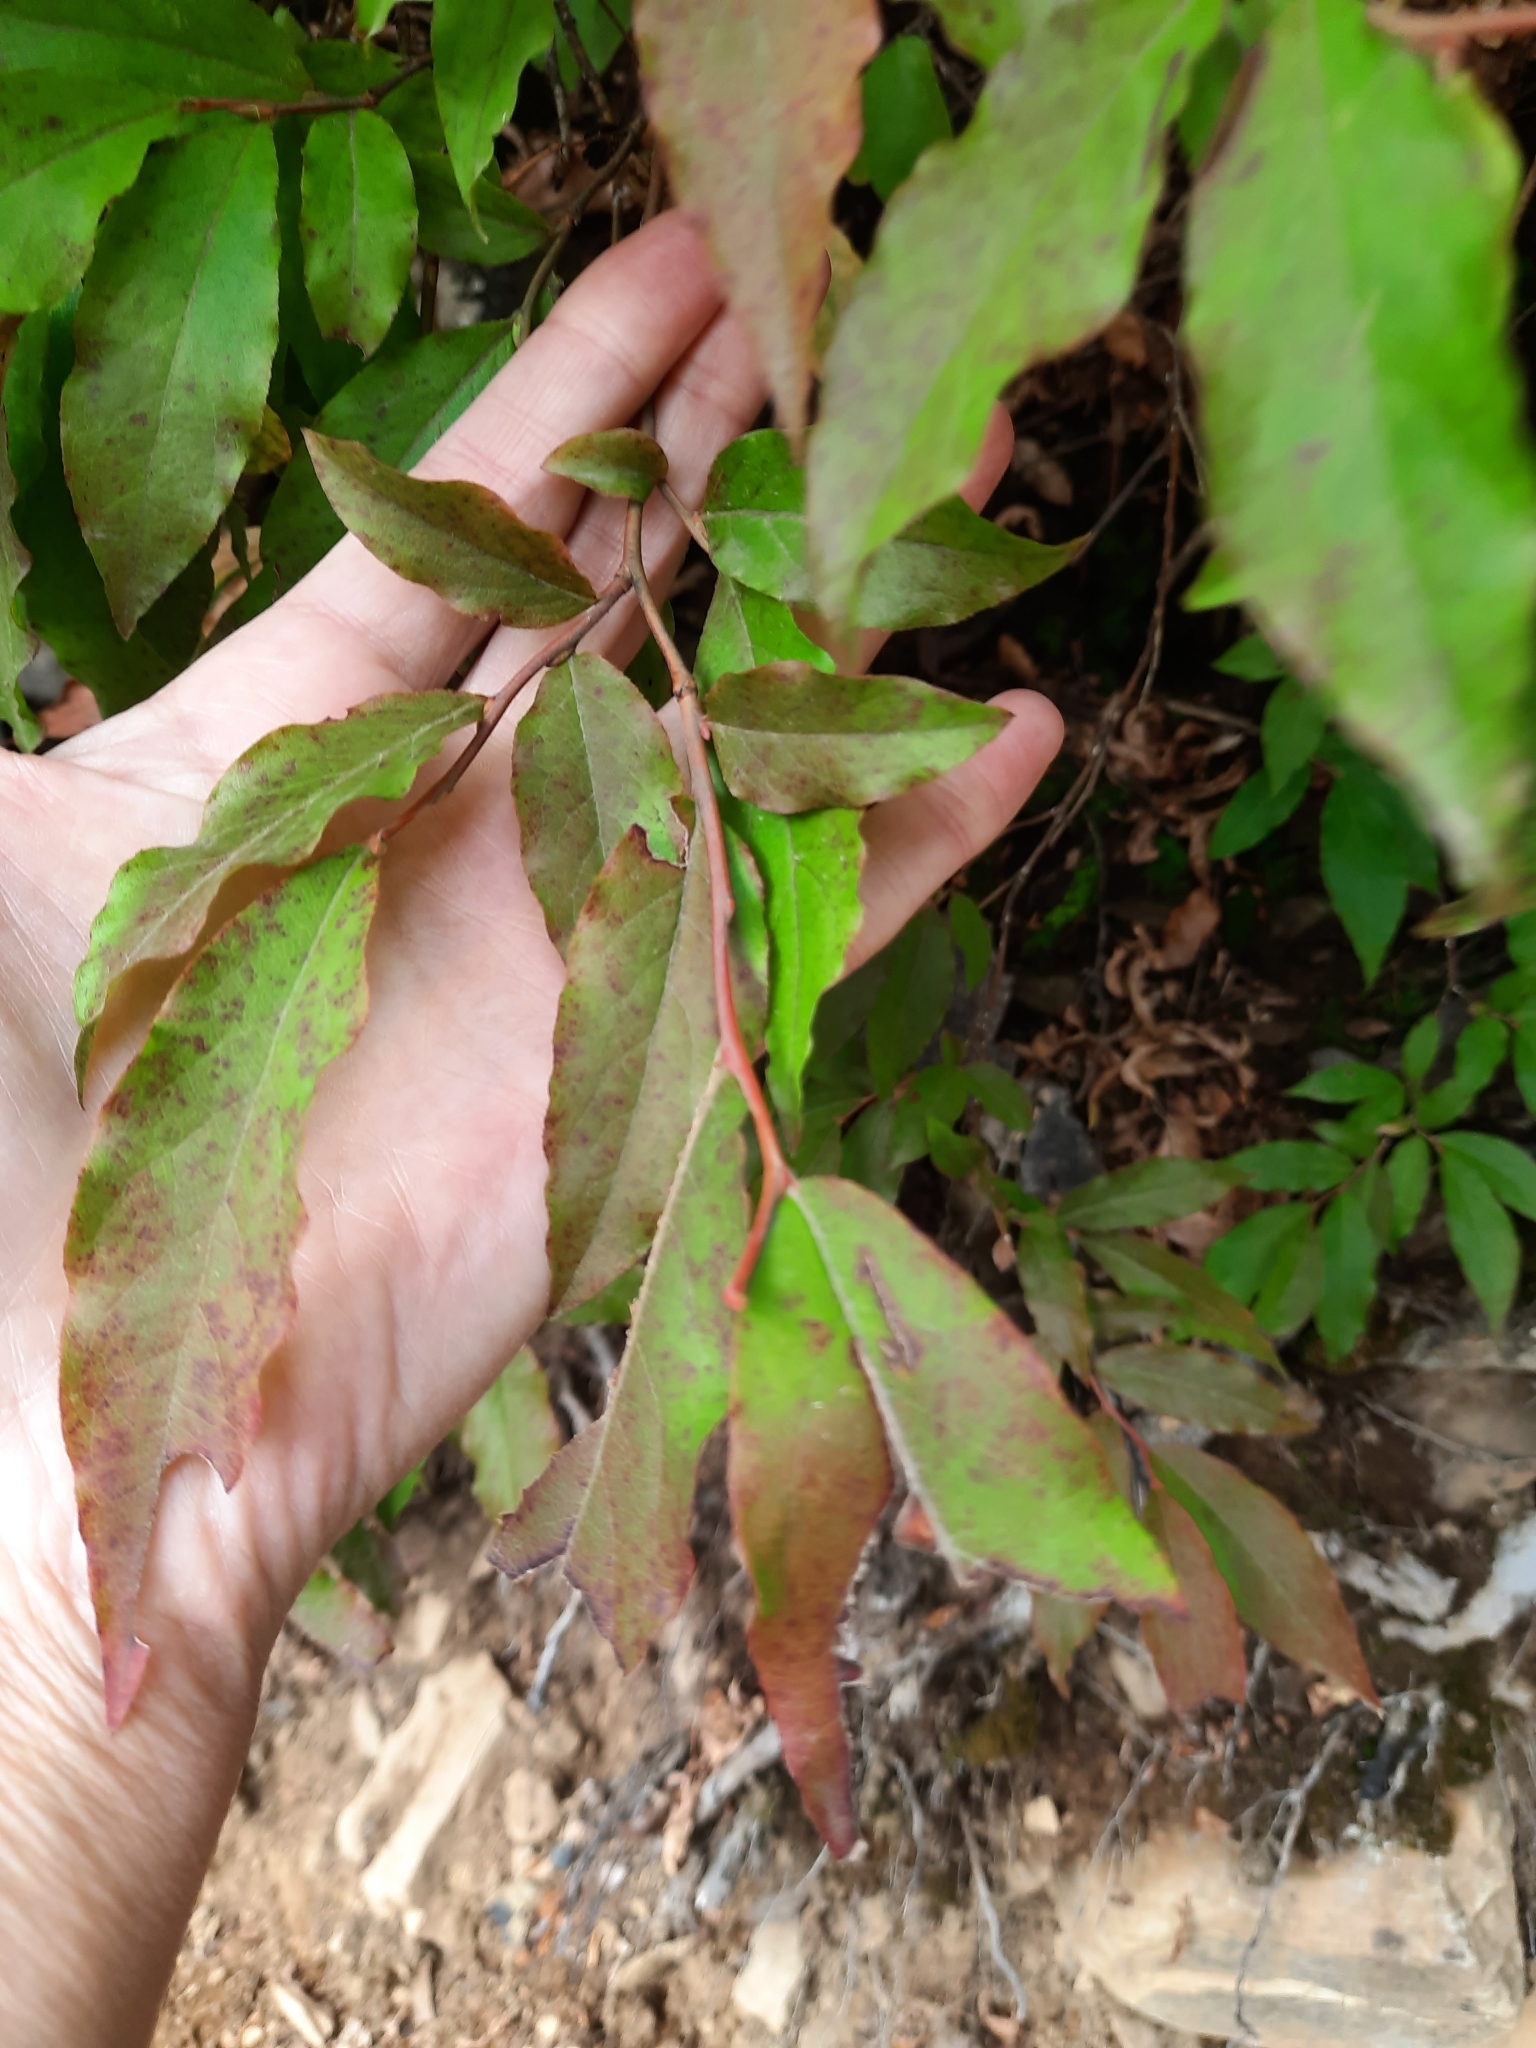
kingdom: Plantae
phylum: Tracheophyta
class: Magnoliopsida
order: Ericales
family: Ericaceae
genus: Vaccinium
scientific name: Vaccinium arctostaphylos
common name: Caucasian whortleberry
